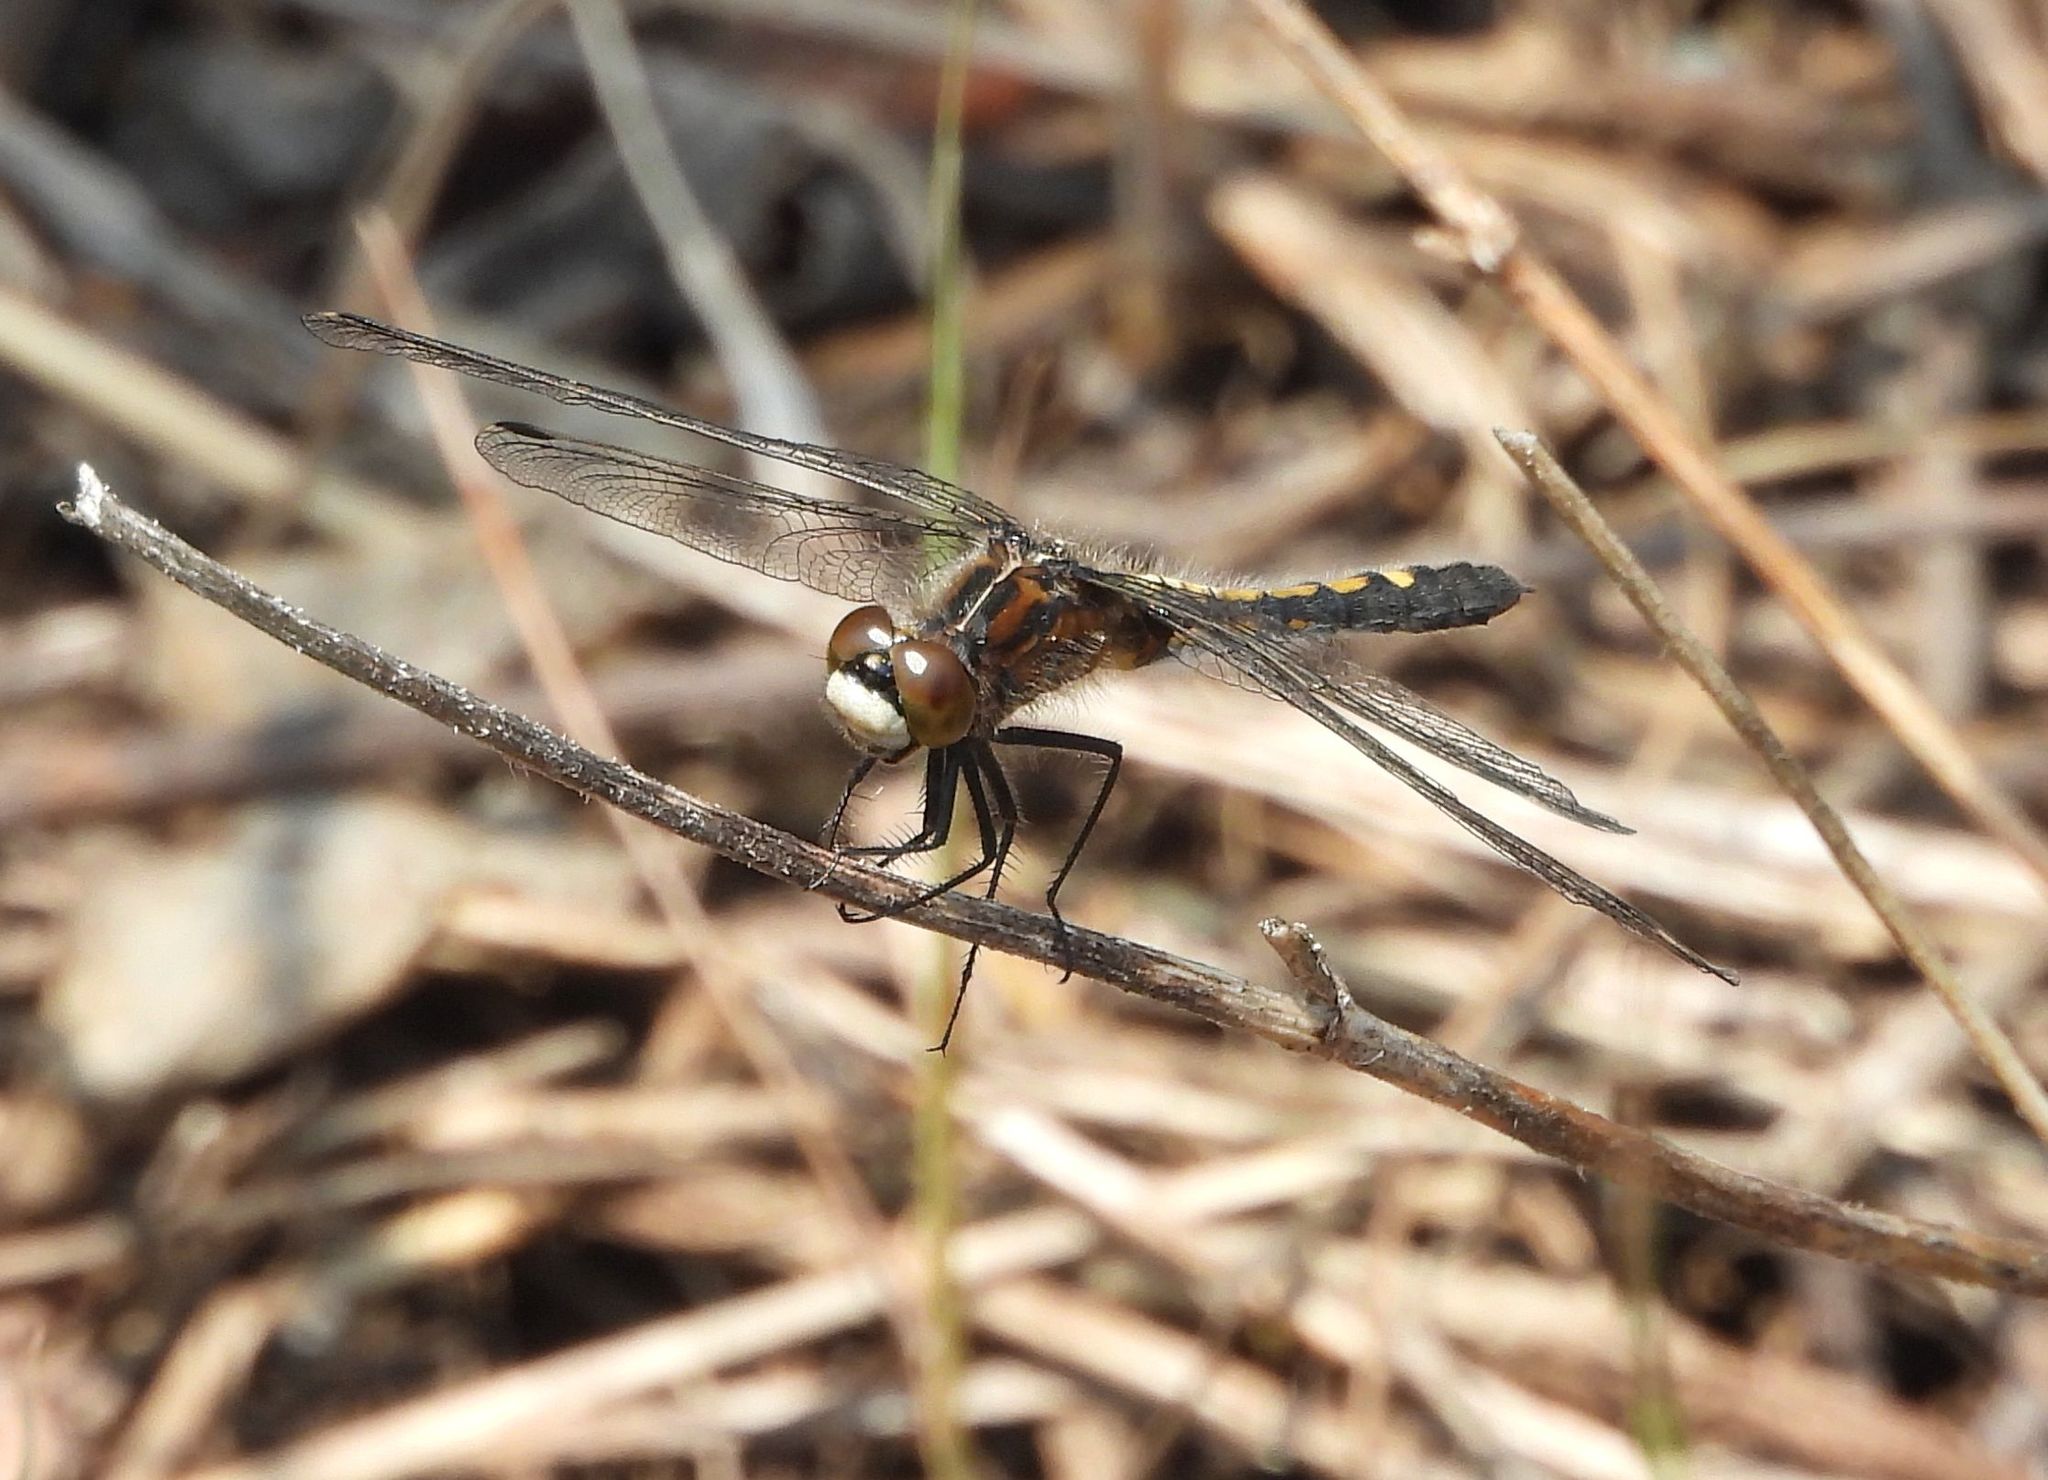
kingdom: Animalia
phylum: Arthropoda
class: Insecta
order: Odonata
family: Libellulidae
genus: Leucorrhinia
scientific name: Leucorrhinia intacta
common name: Dot-tailed whiteface
